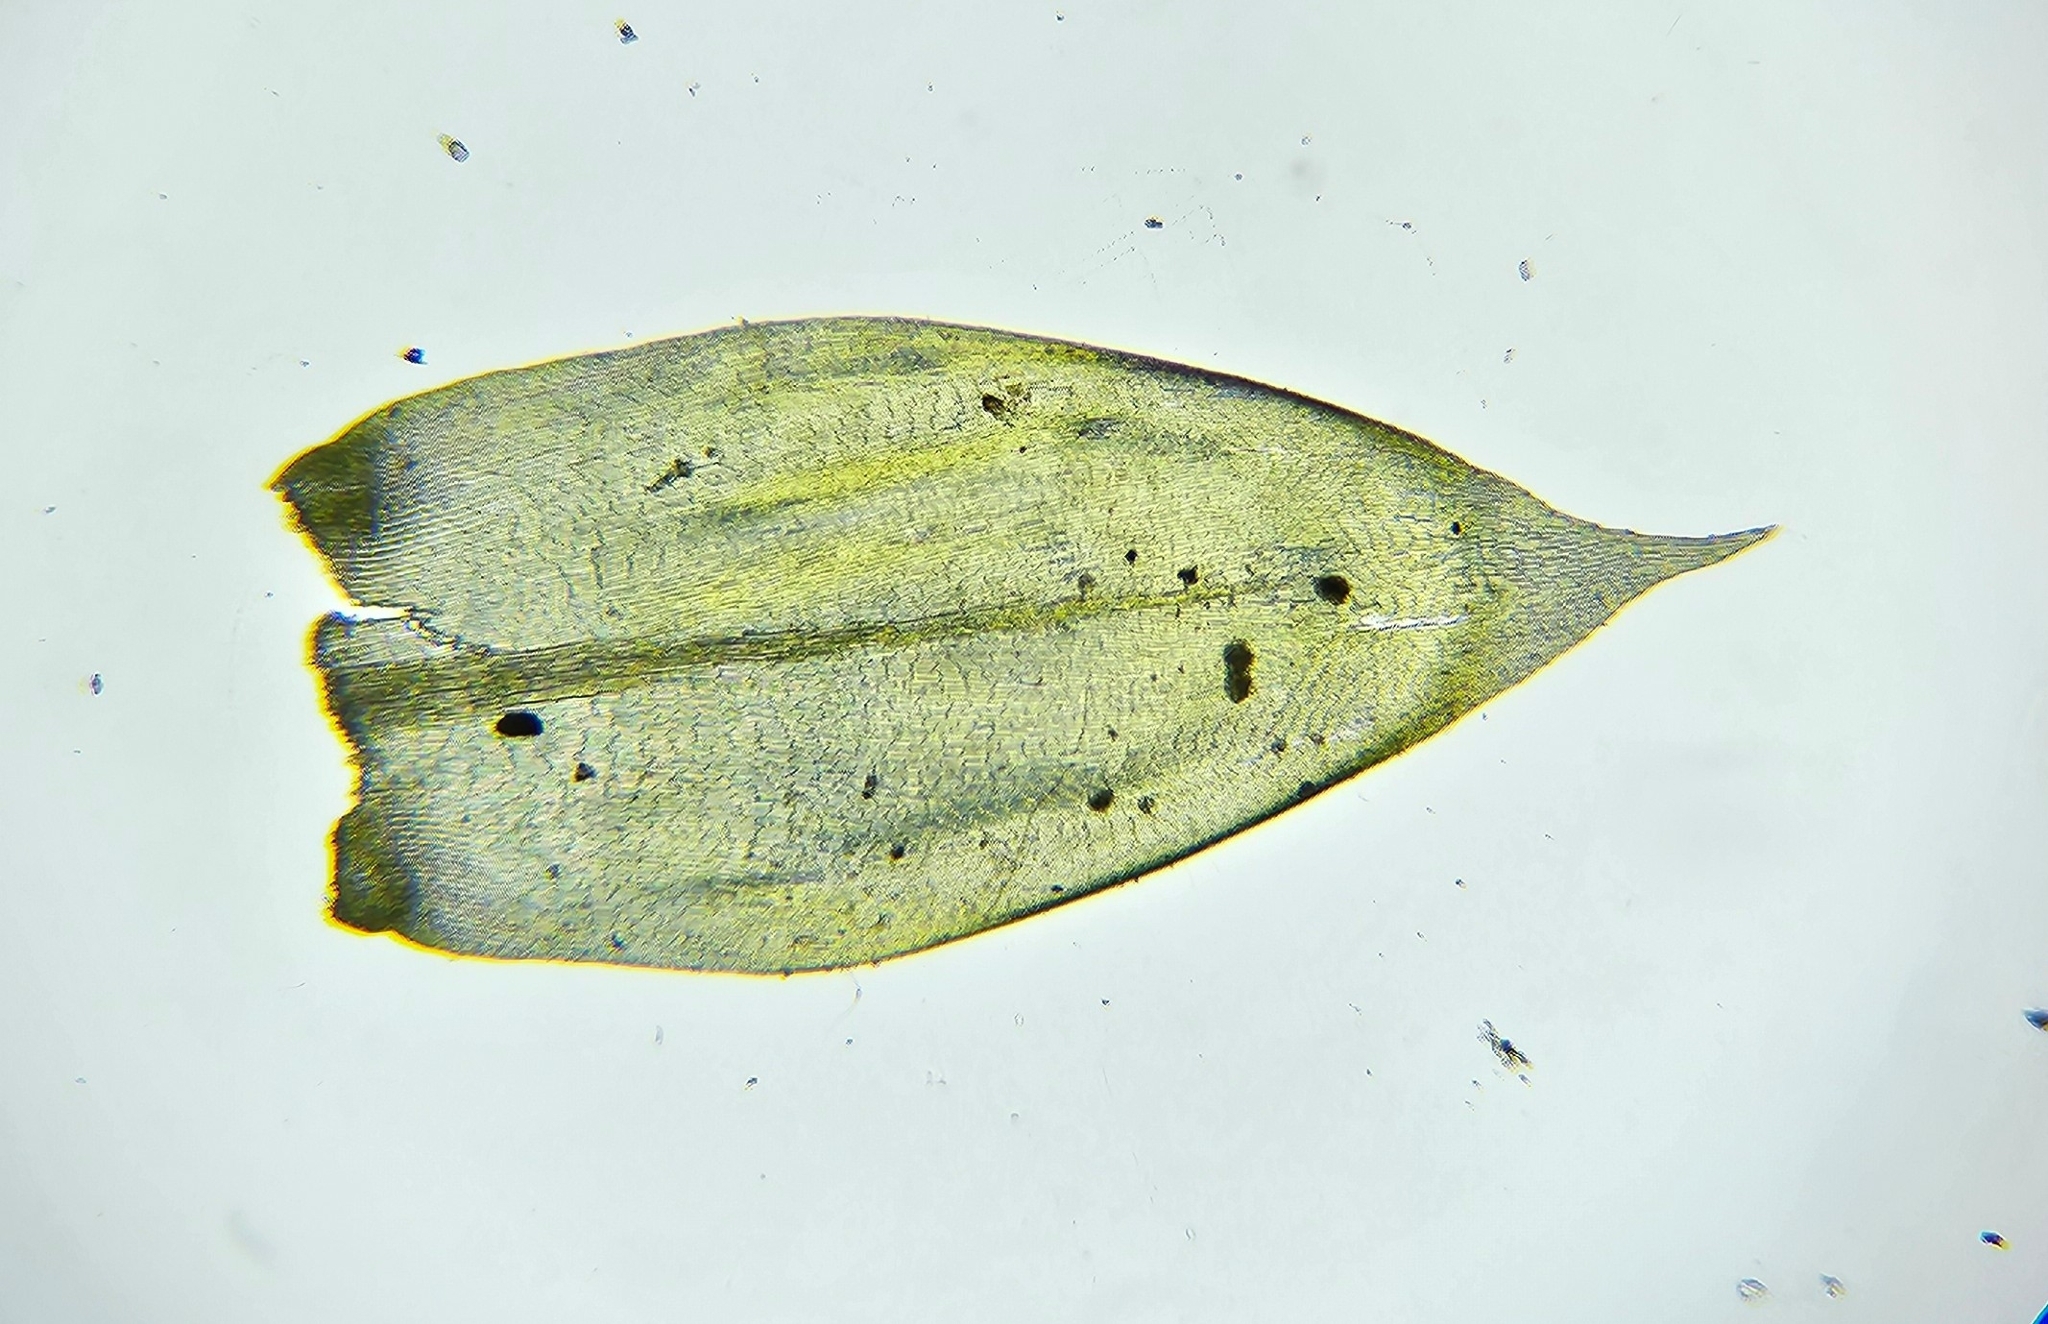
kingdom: Plantae
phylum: Bryophyta
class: Bryopsida
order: Hypnales
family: Lembophyllaceae
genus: Isothecium
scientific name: Isothecium alopecuroides
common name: Larger mouse-tail moss
